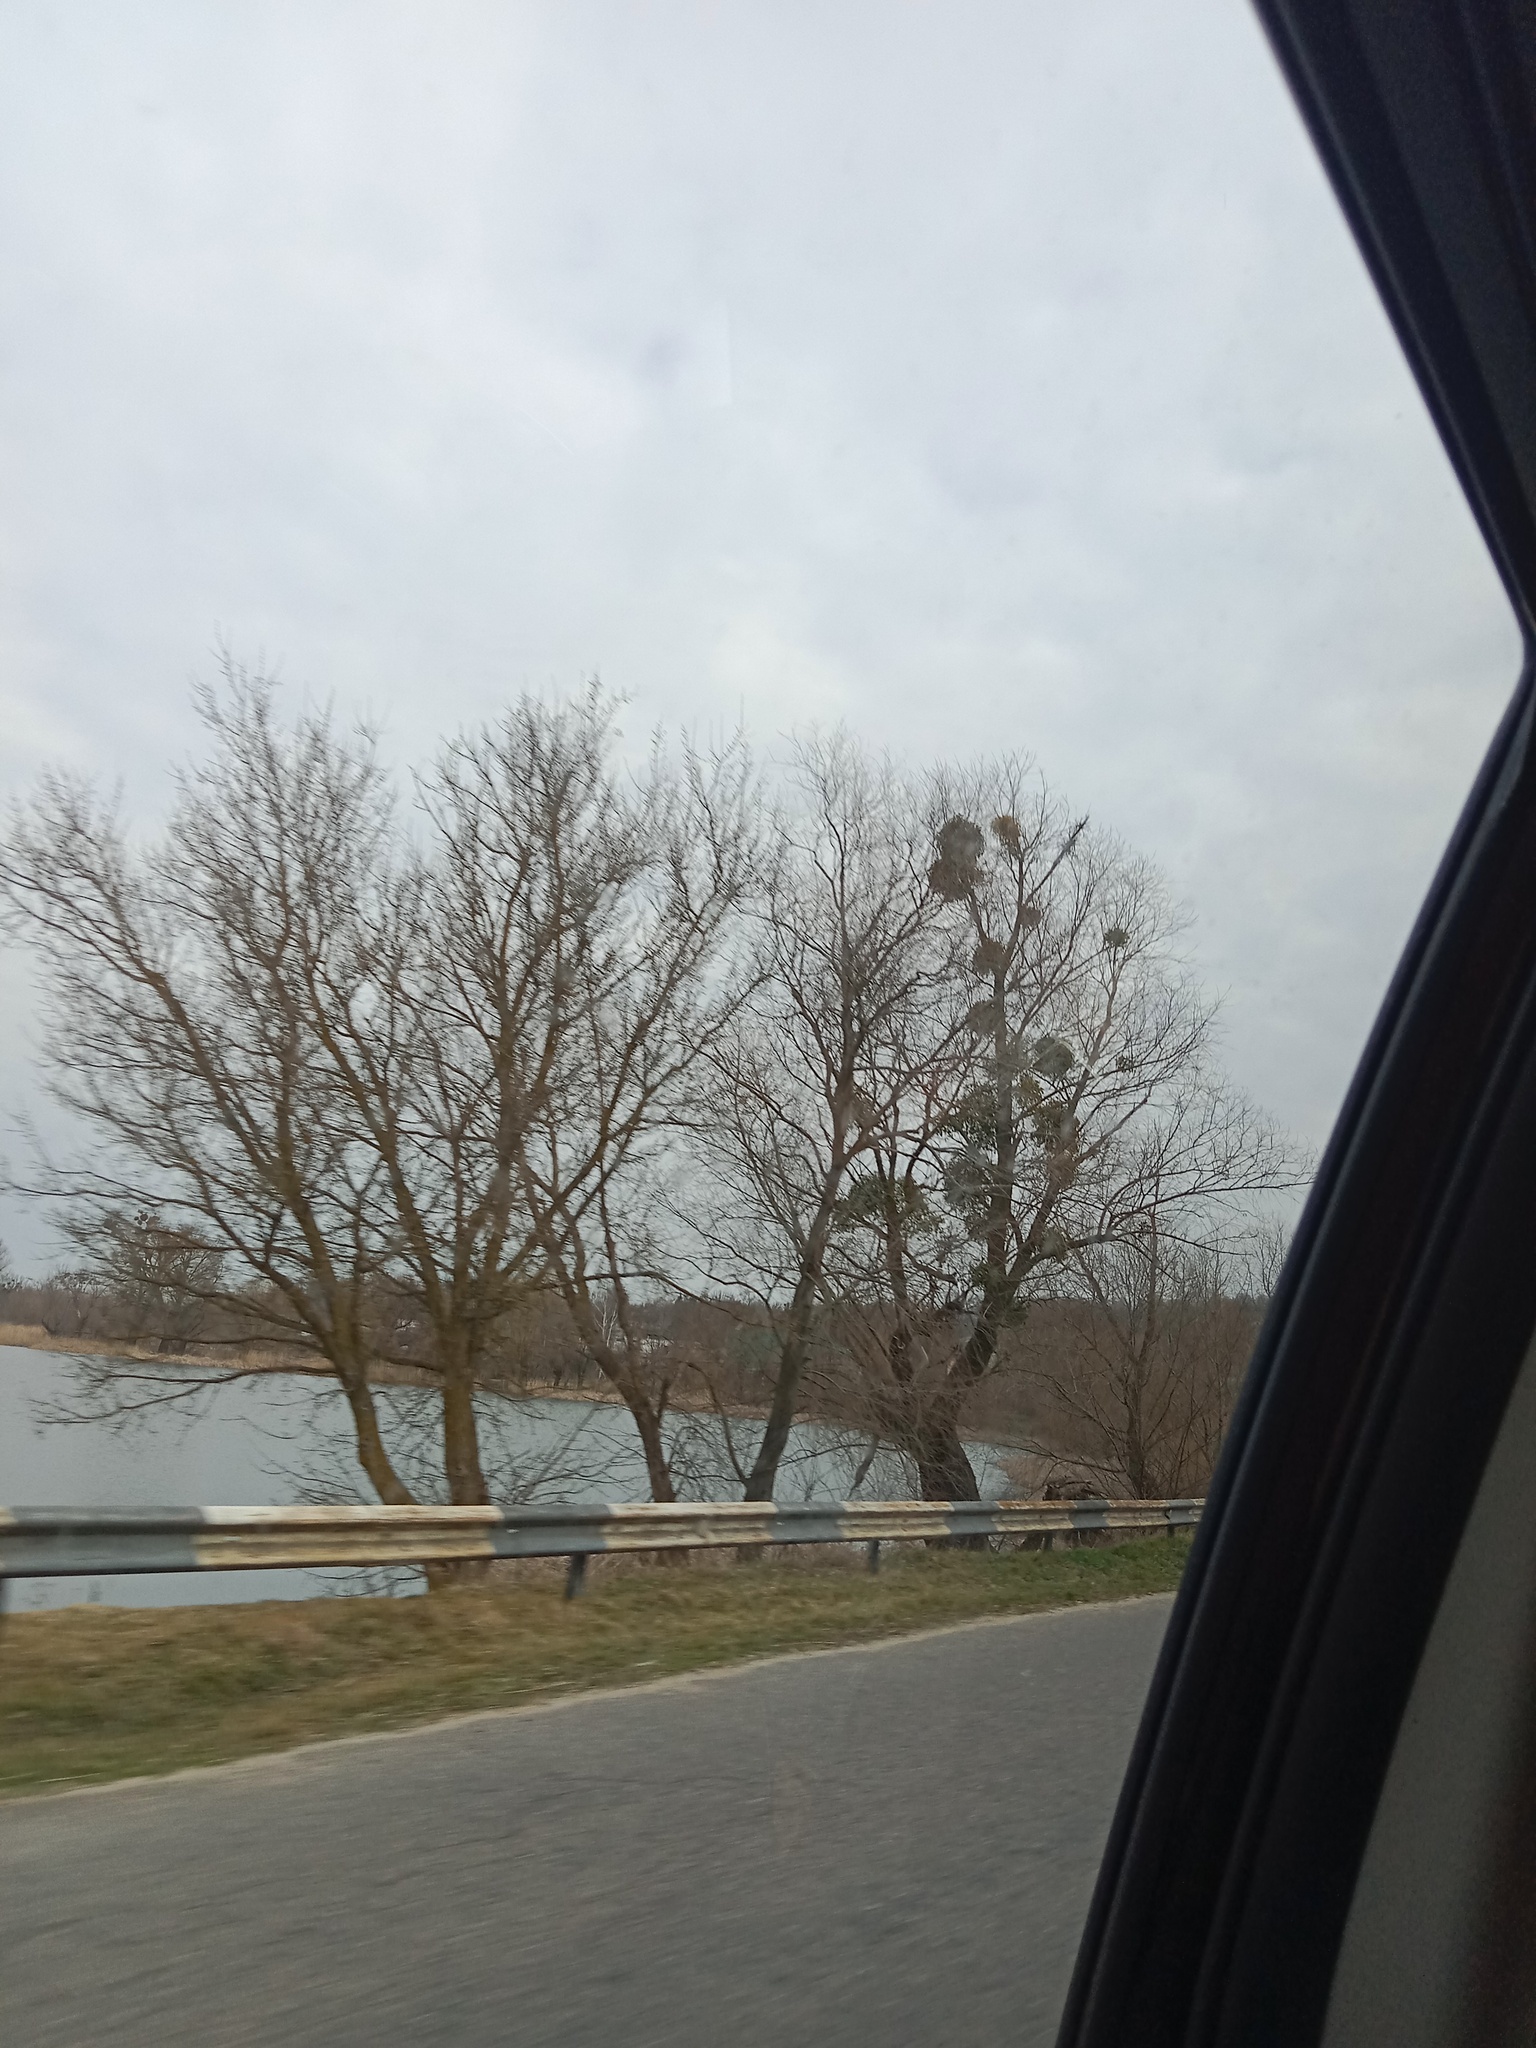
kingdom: Plantae
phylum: Tracheophyta
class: Magnoliopsida
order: Santalales
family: Viscaceae
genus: Viscum
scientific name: Viscum album
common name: Mistletoe
